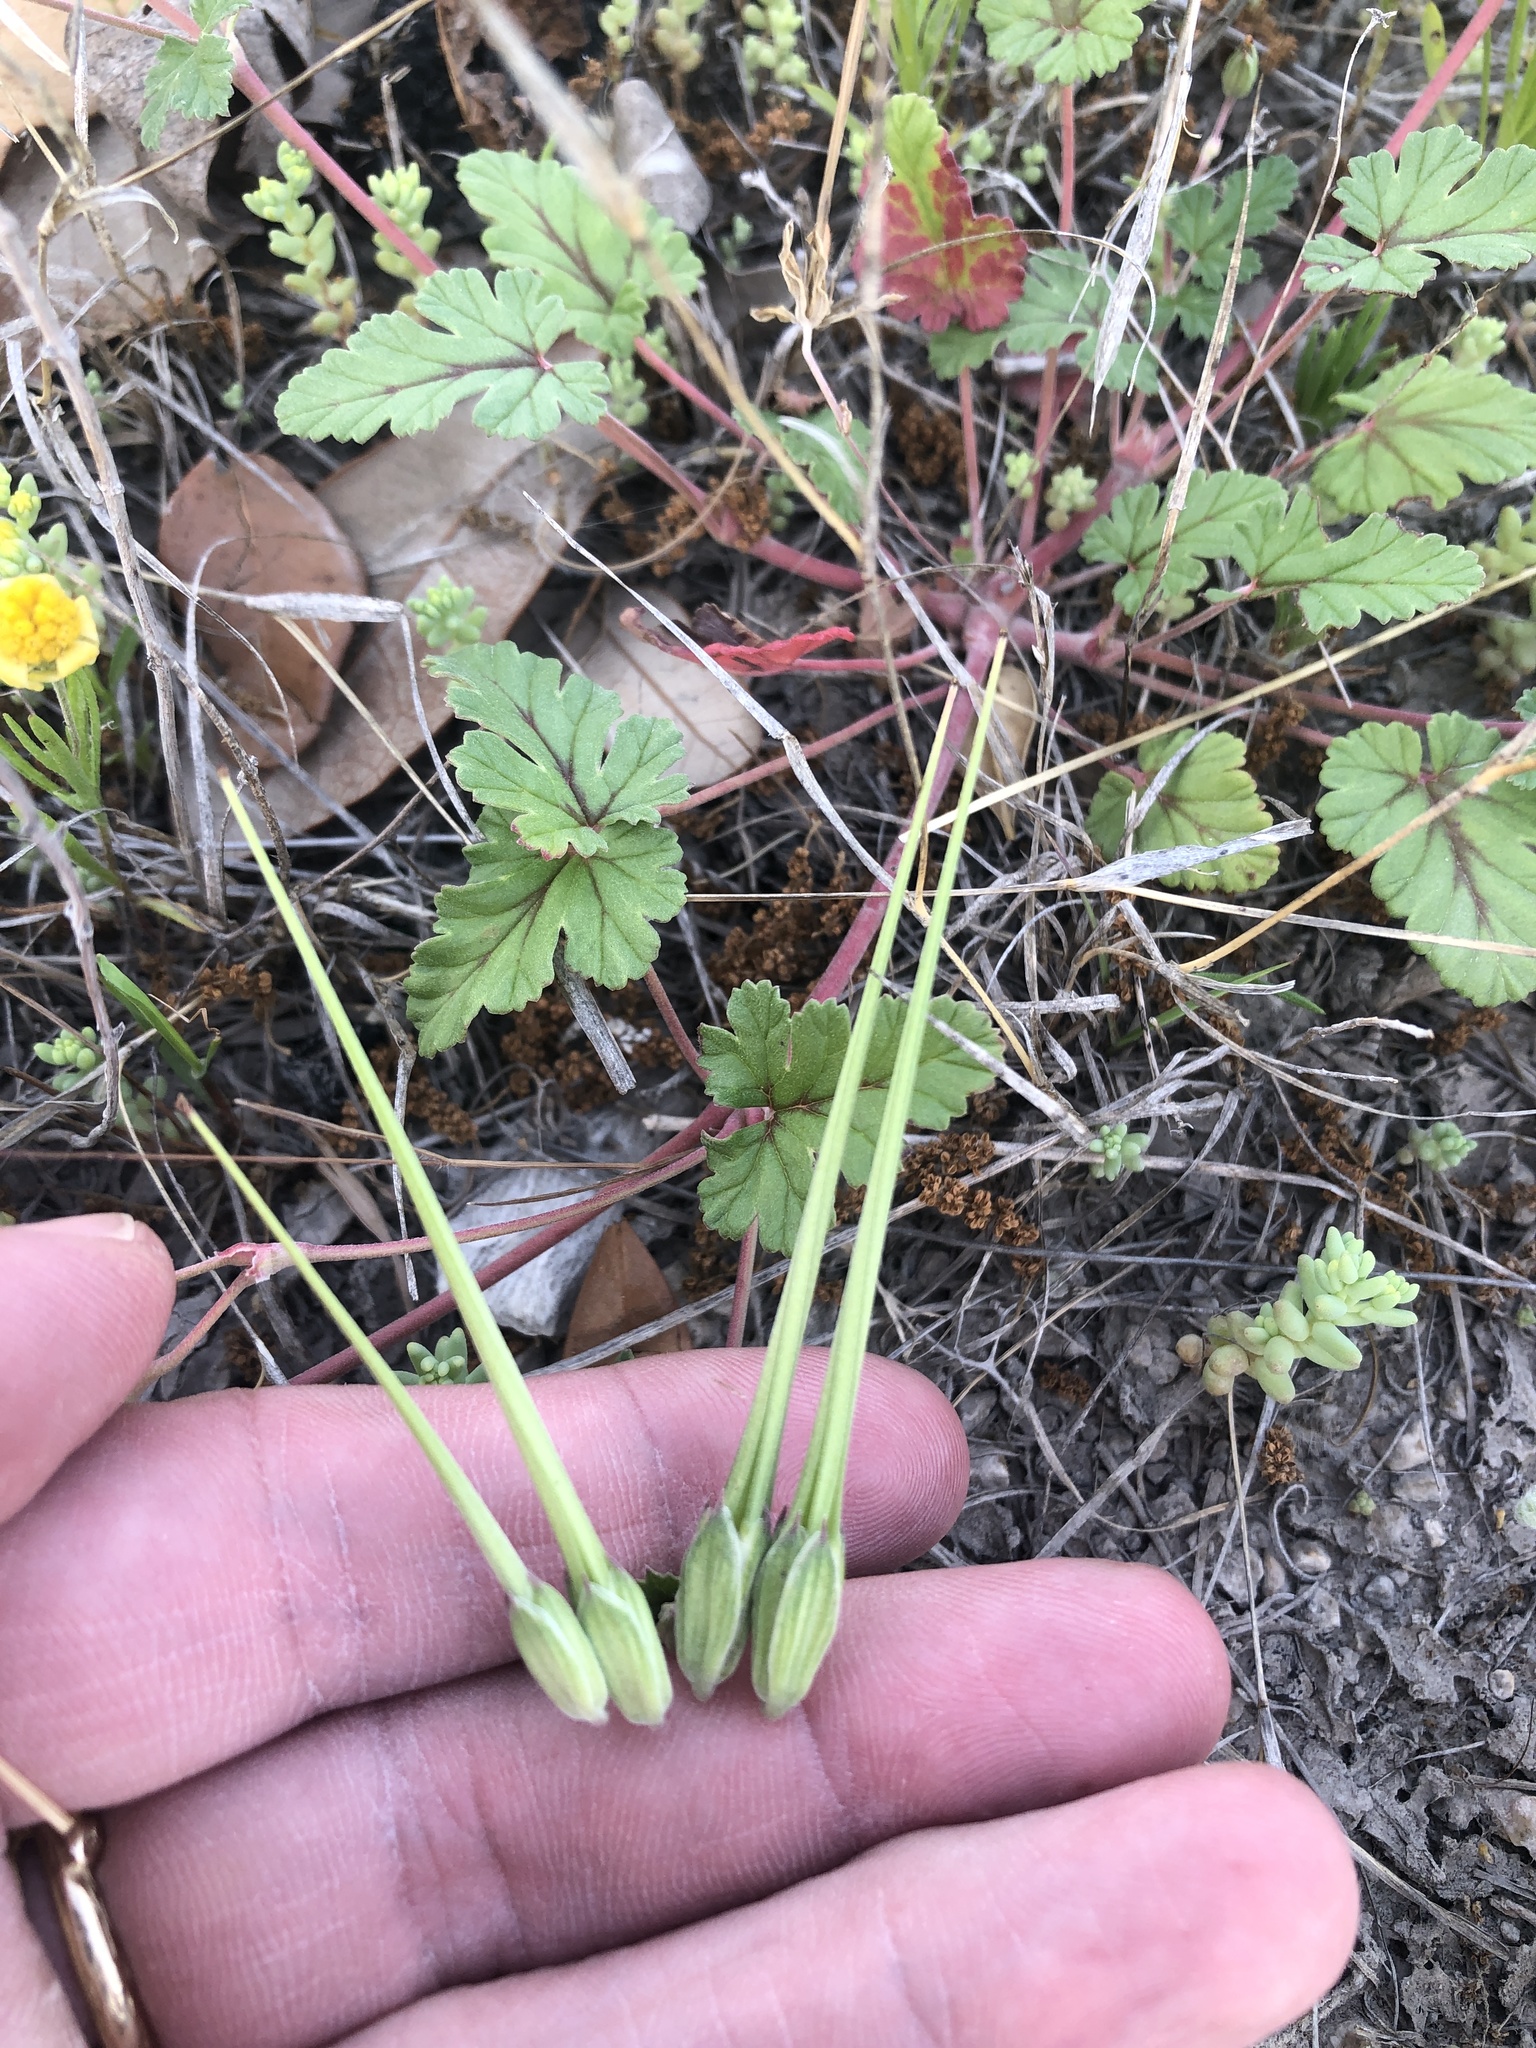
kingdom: Plantae
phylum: Tracheophyta
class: Magnoliopsida
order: Geraniales
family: Geraniaceae
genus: Erodium
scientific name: Erodium texanum
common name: Texas stork's-bill
